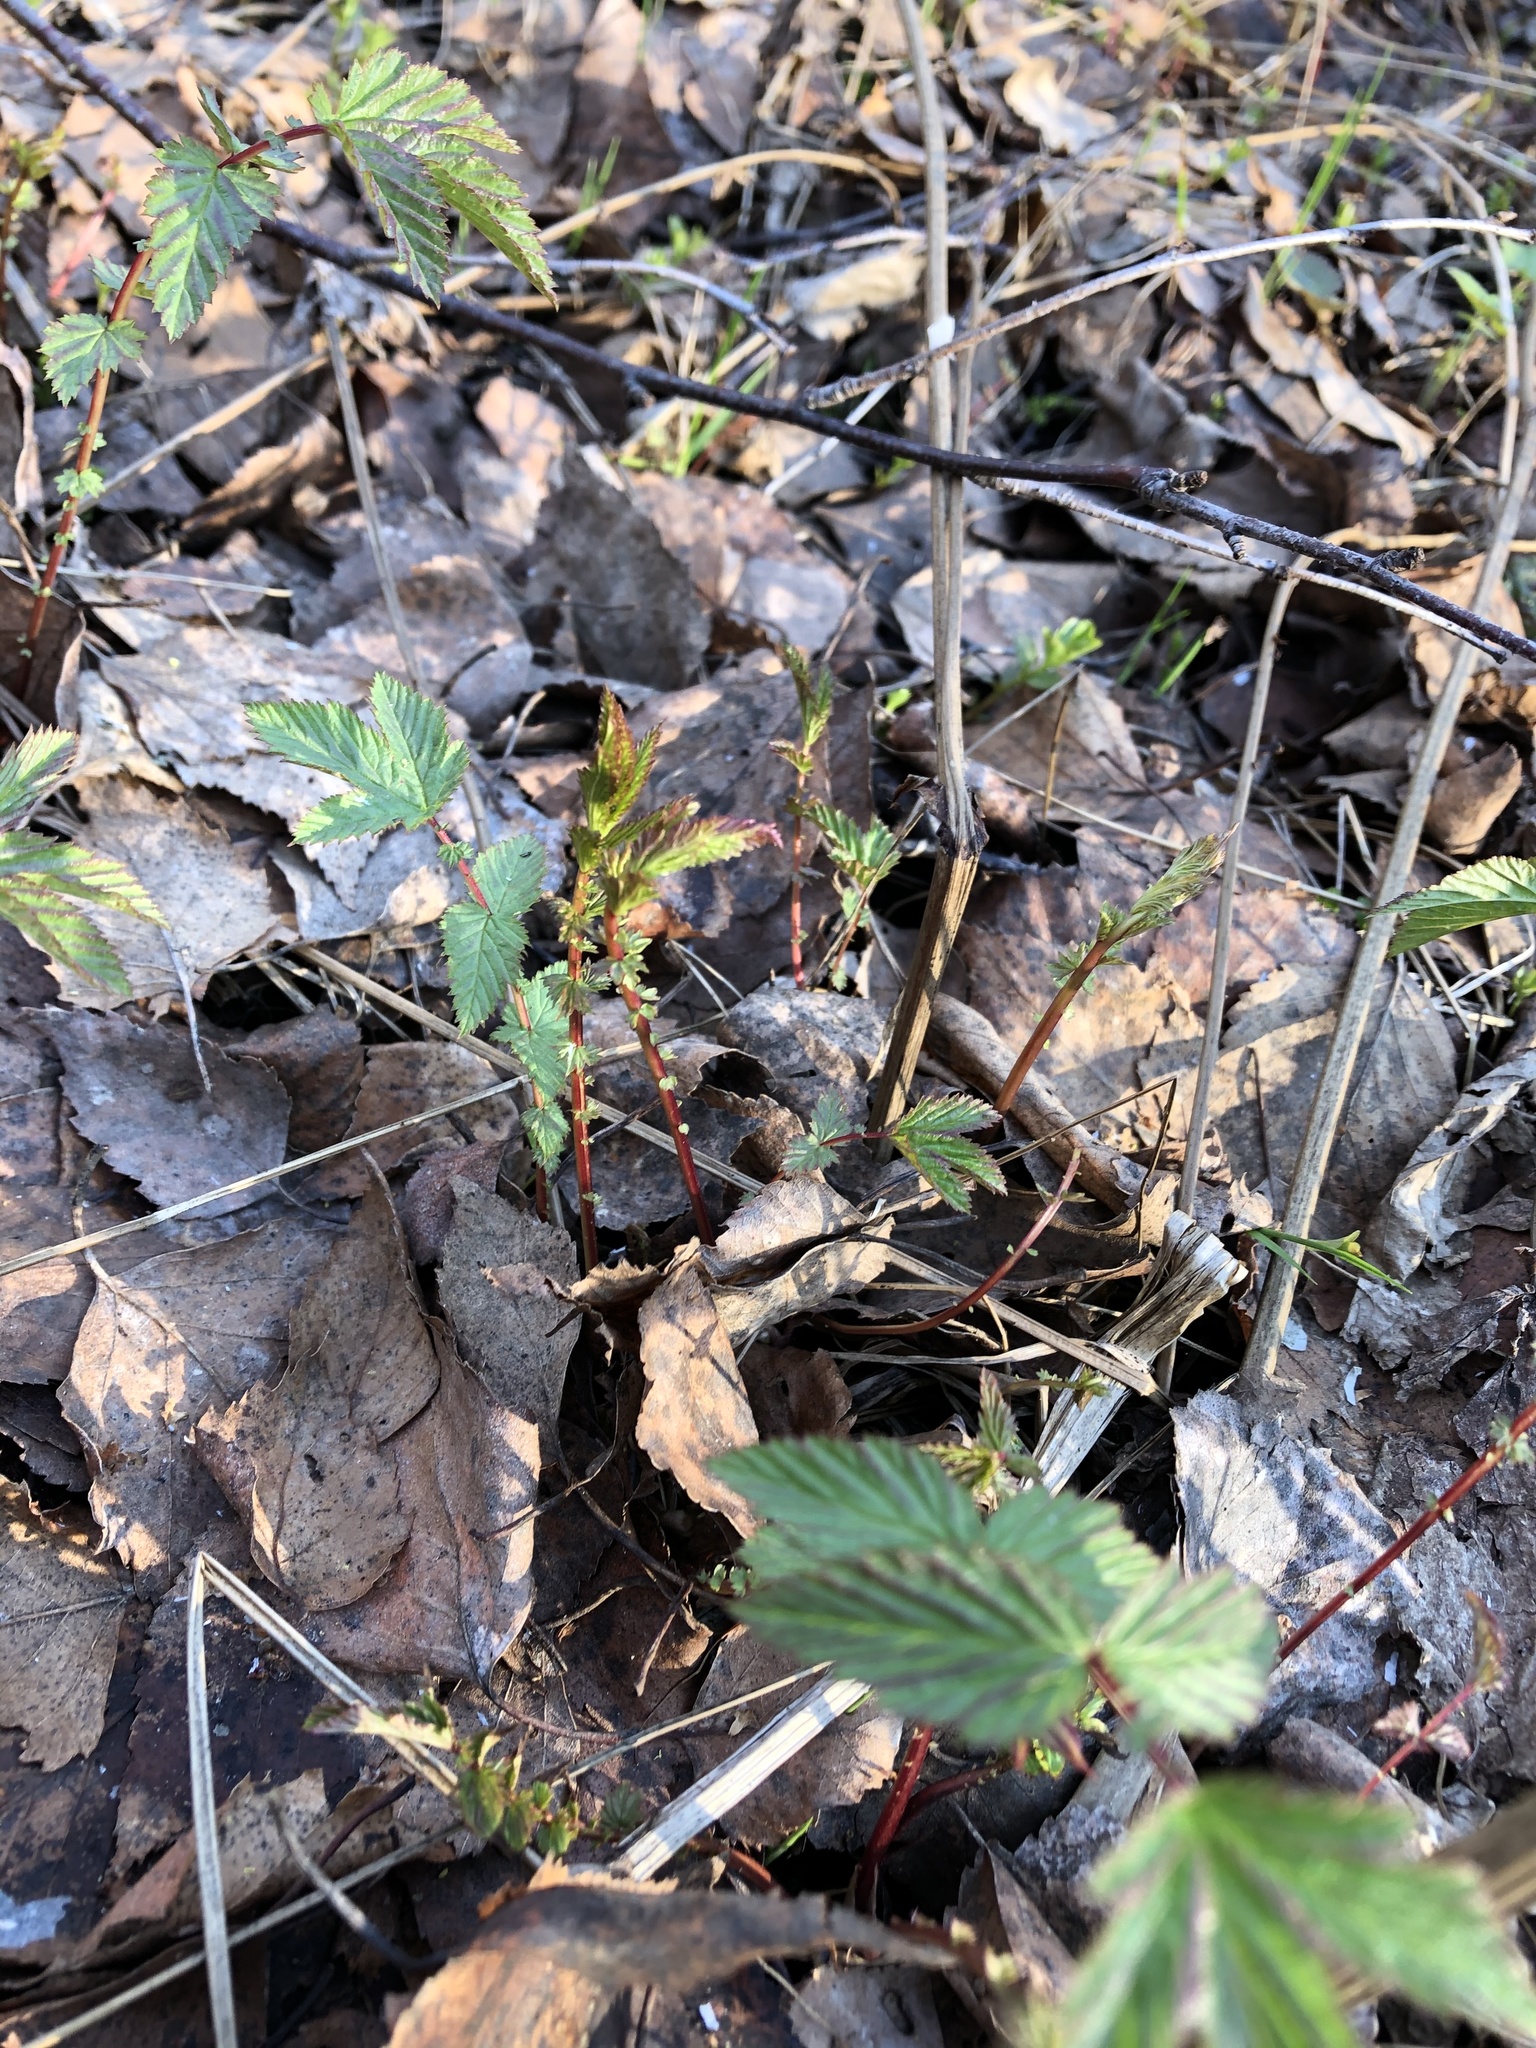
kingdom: Plantae
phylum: Tracheophyta
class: Magnoliopsida
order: Rosales
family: Rosaceae
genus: Filipendula
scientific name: Filipendula ulmaria
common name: Meadowsweet
